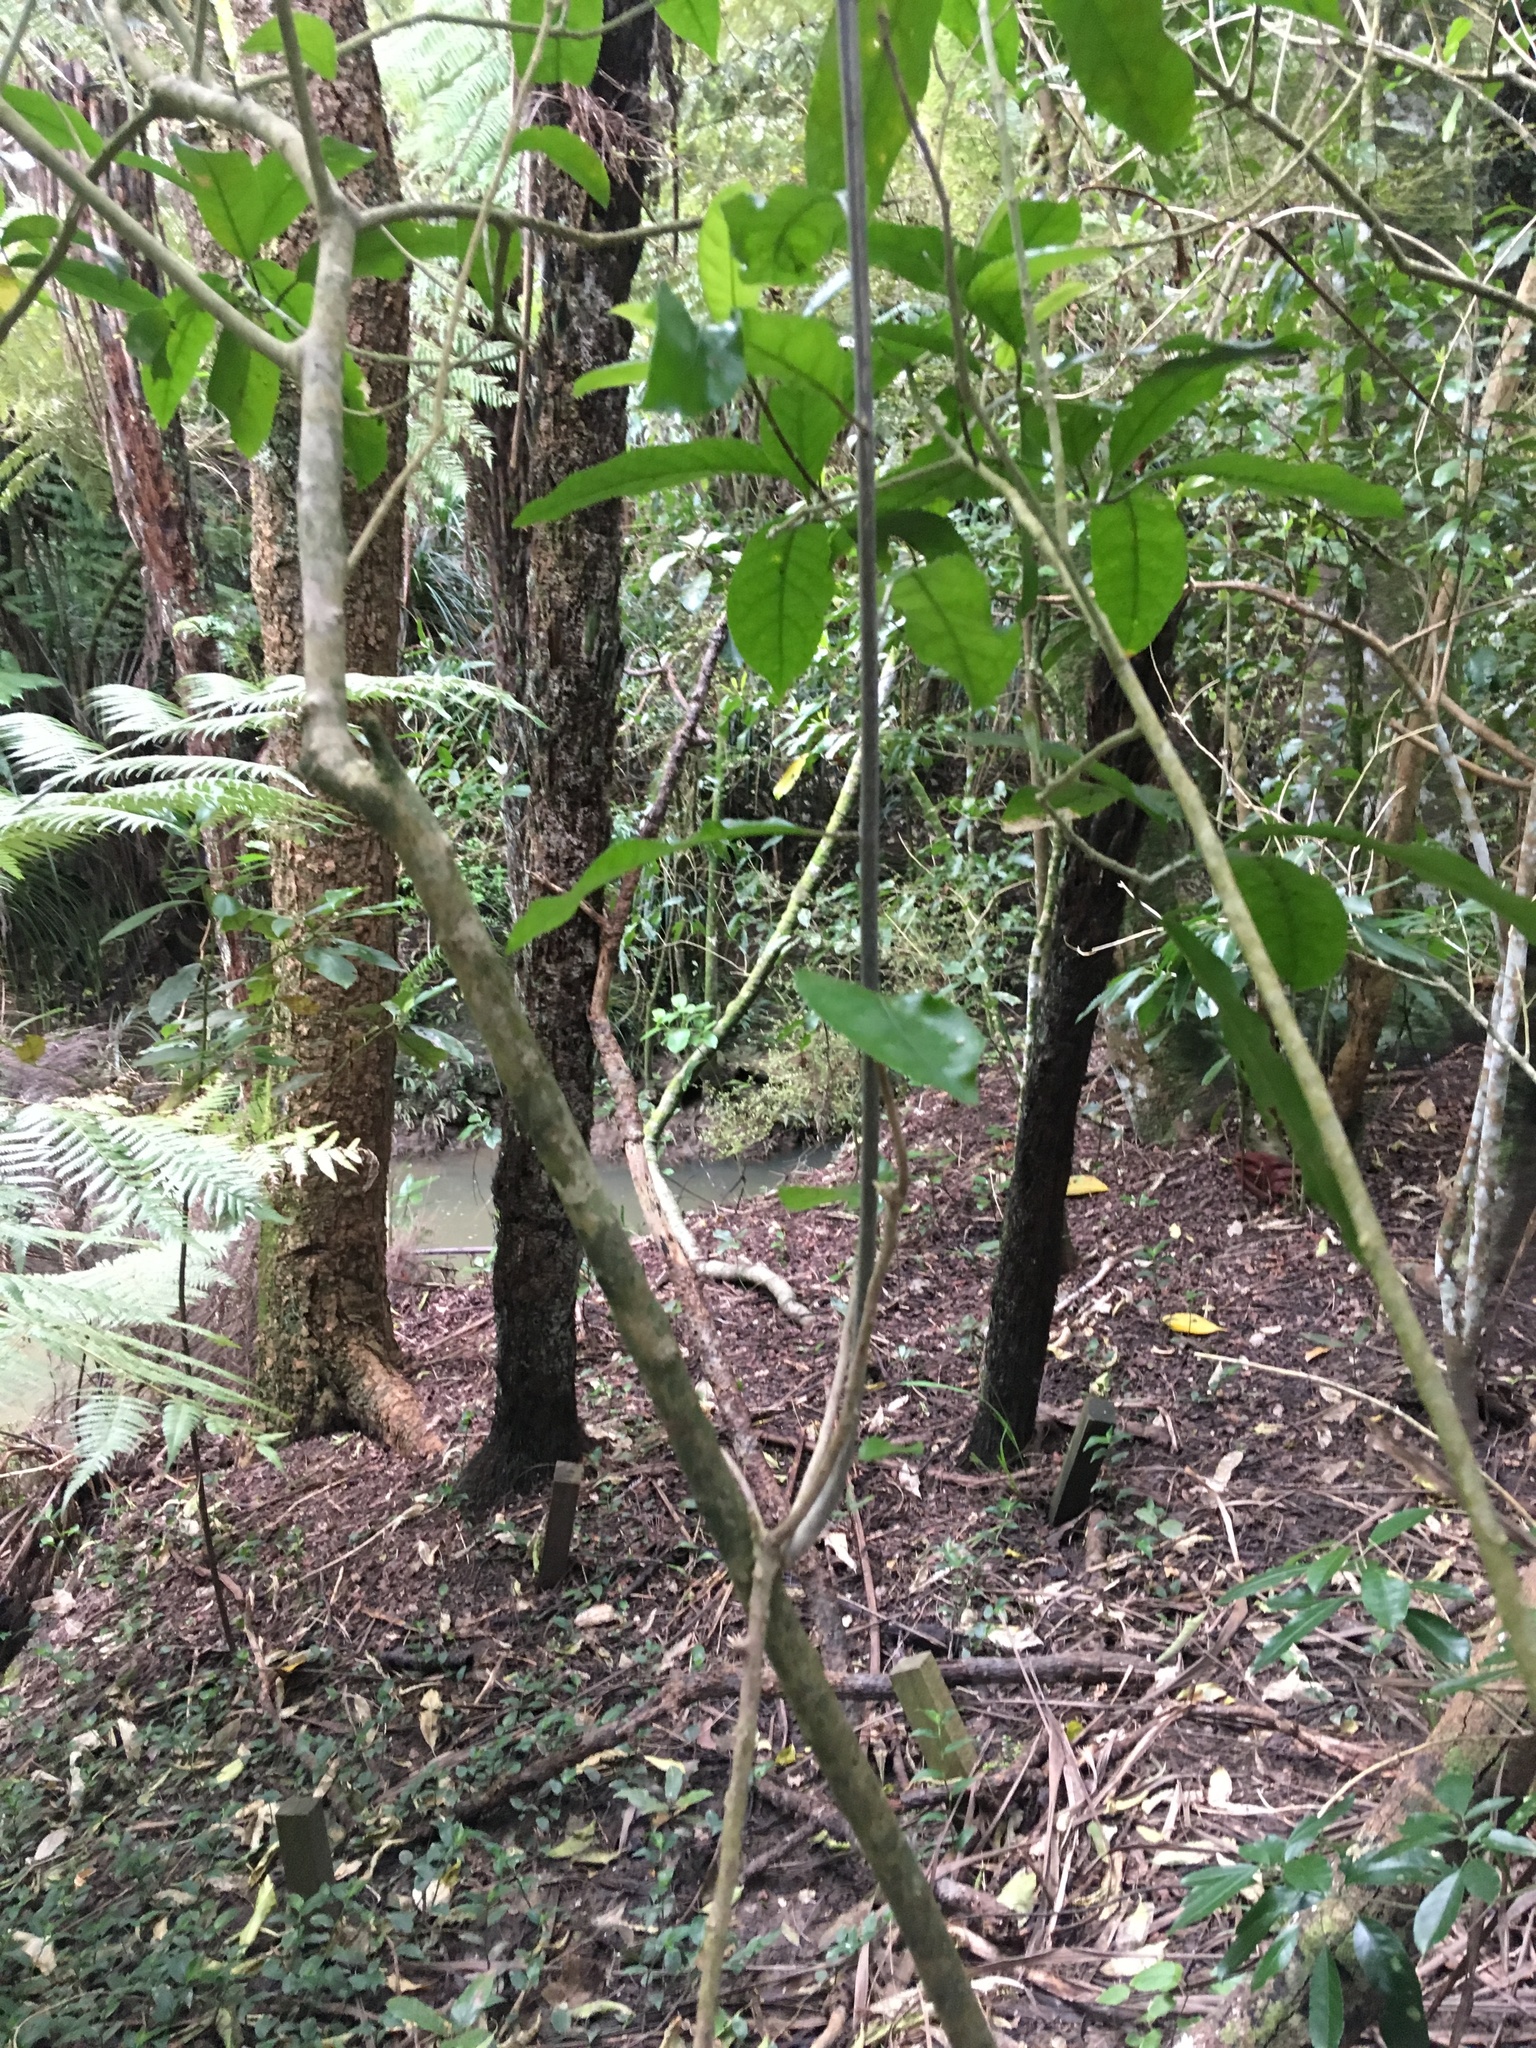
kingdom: Plantae
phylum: Tracheophyta
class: Liliopsida
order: Commelinales
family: Commelinaceae
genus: Tradescantia
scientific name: Tradescantia fluminensis
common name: Wandering-jew
